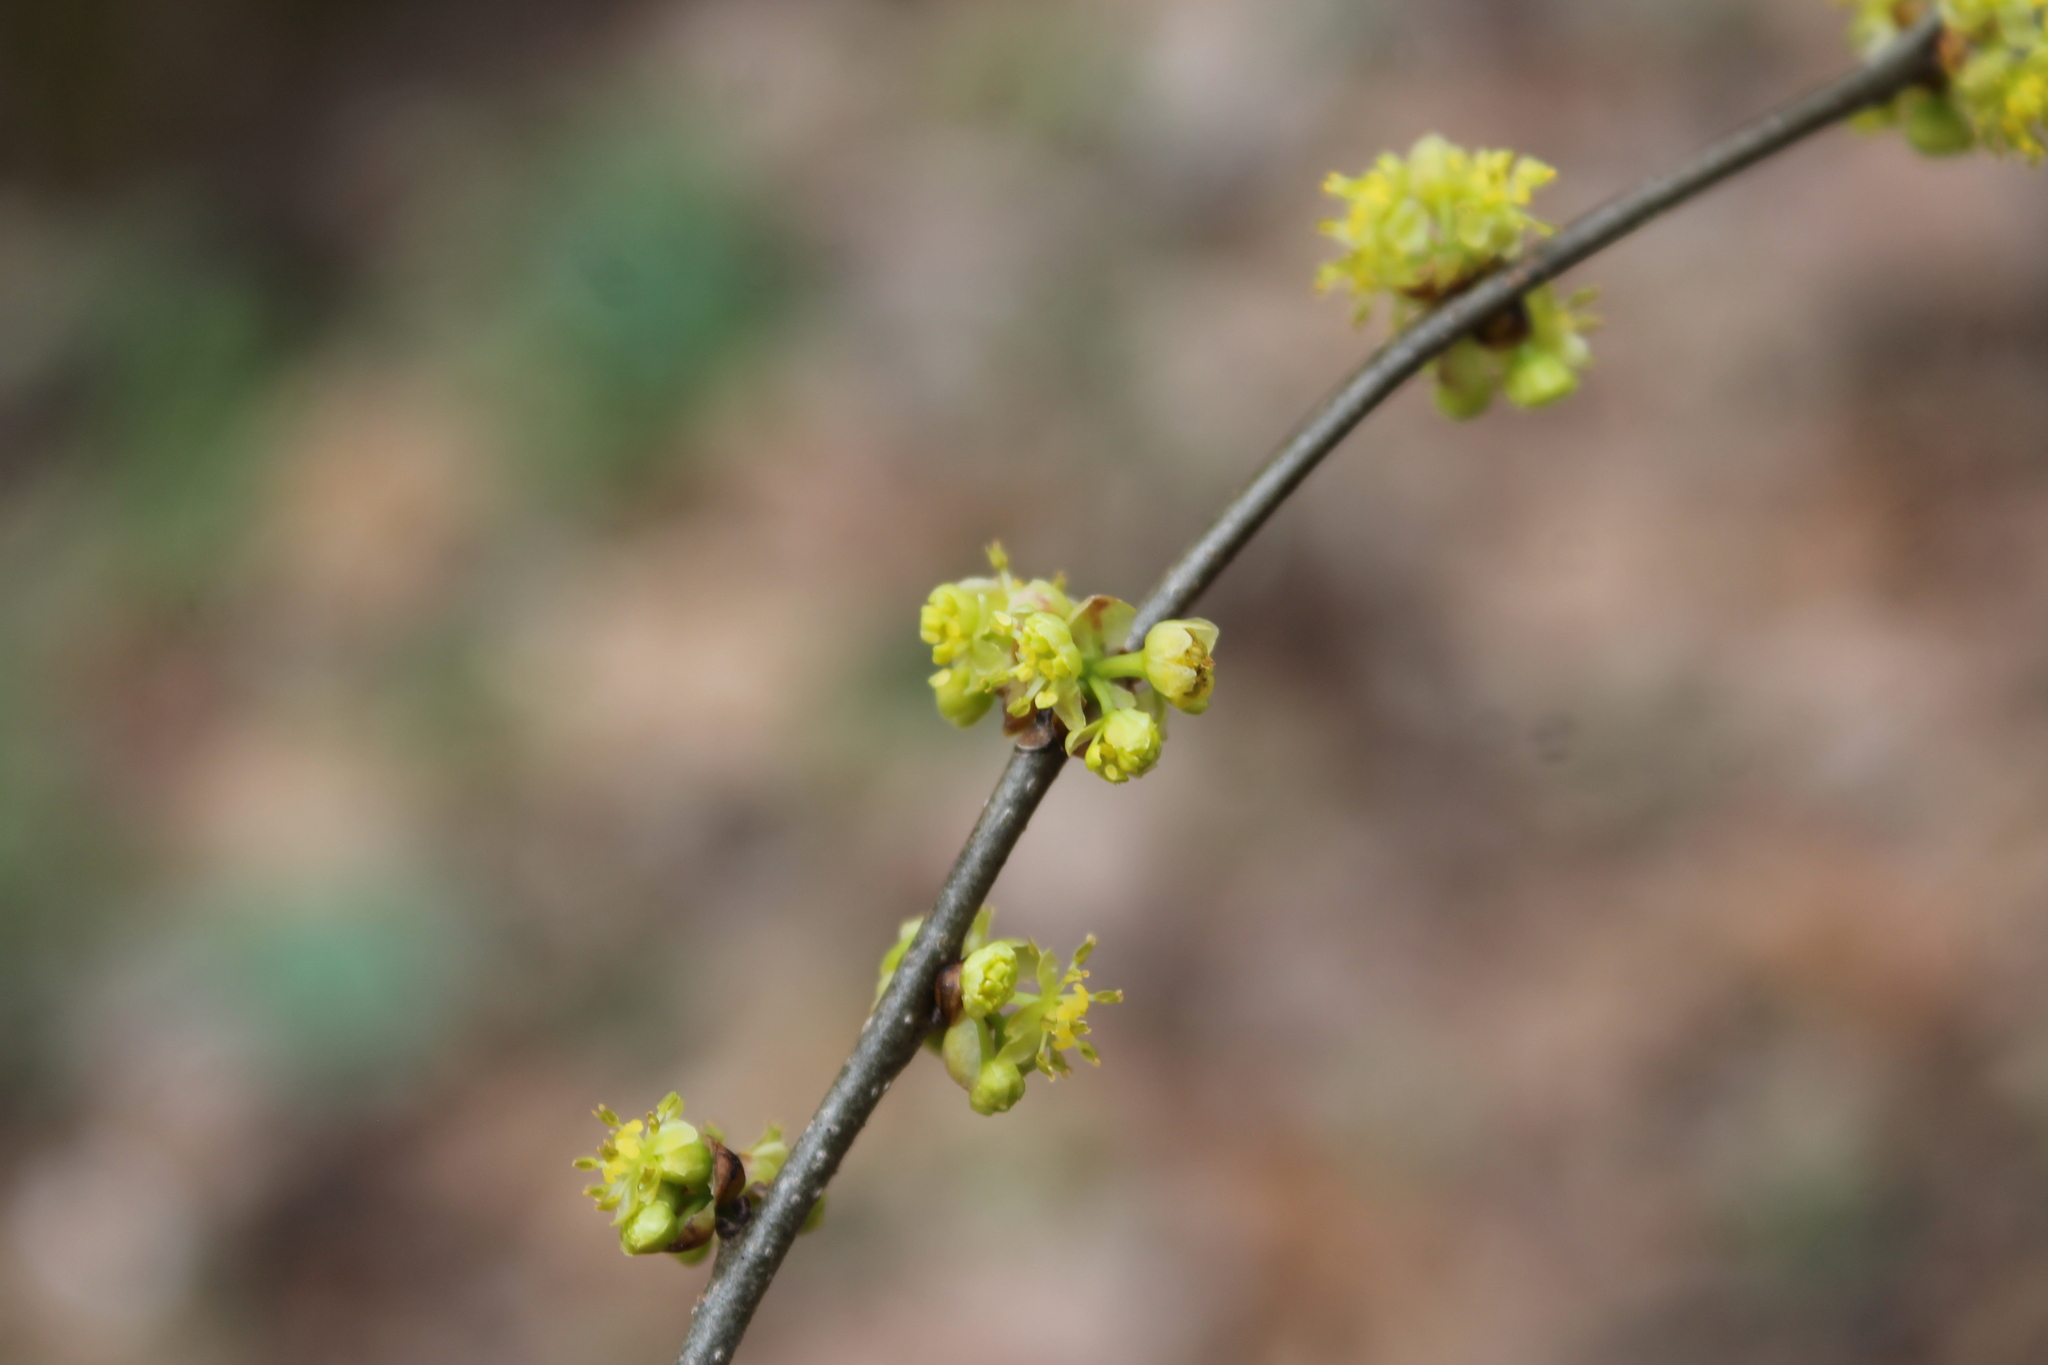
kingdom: Plantae
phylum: Tracheophyta
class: Magnoliopsida
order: Laurales
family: Lauraceae
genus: Lindera
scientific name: Lindera benzoin
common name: Spicebush
